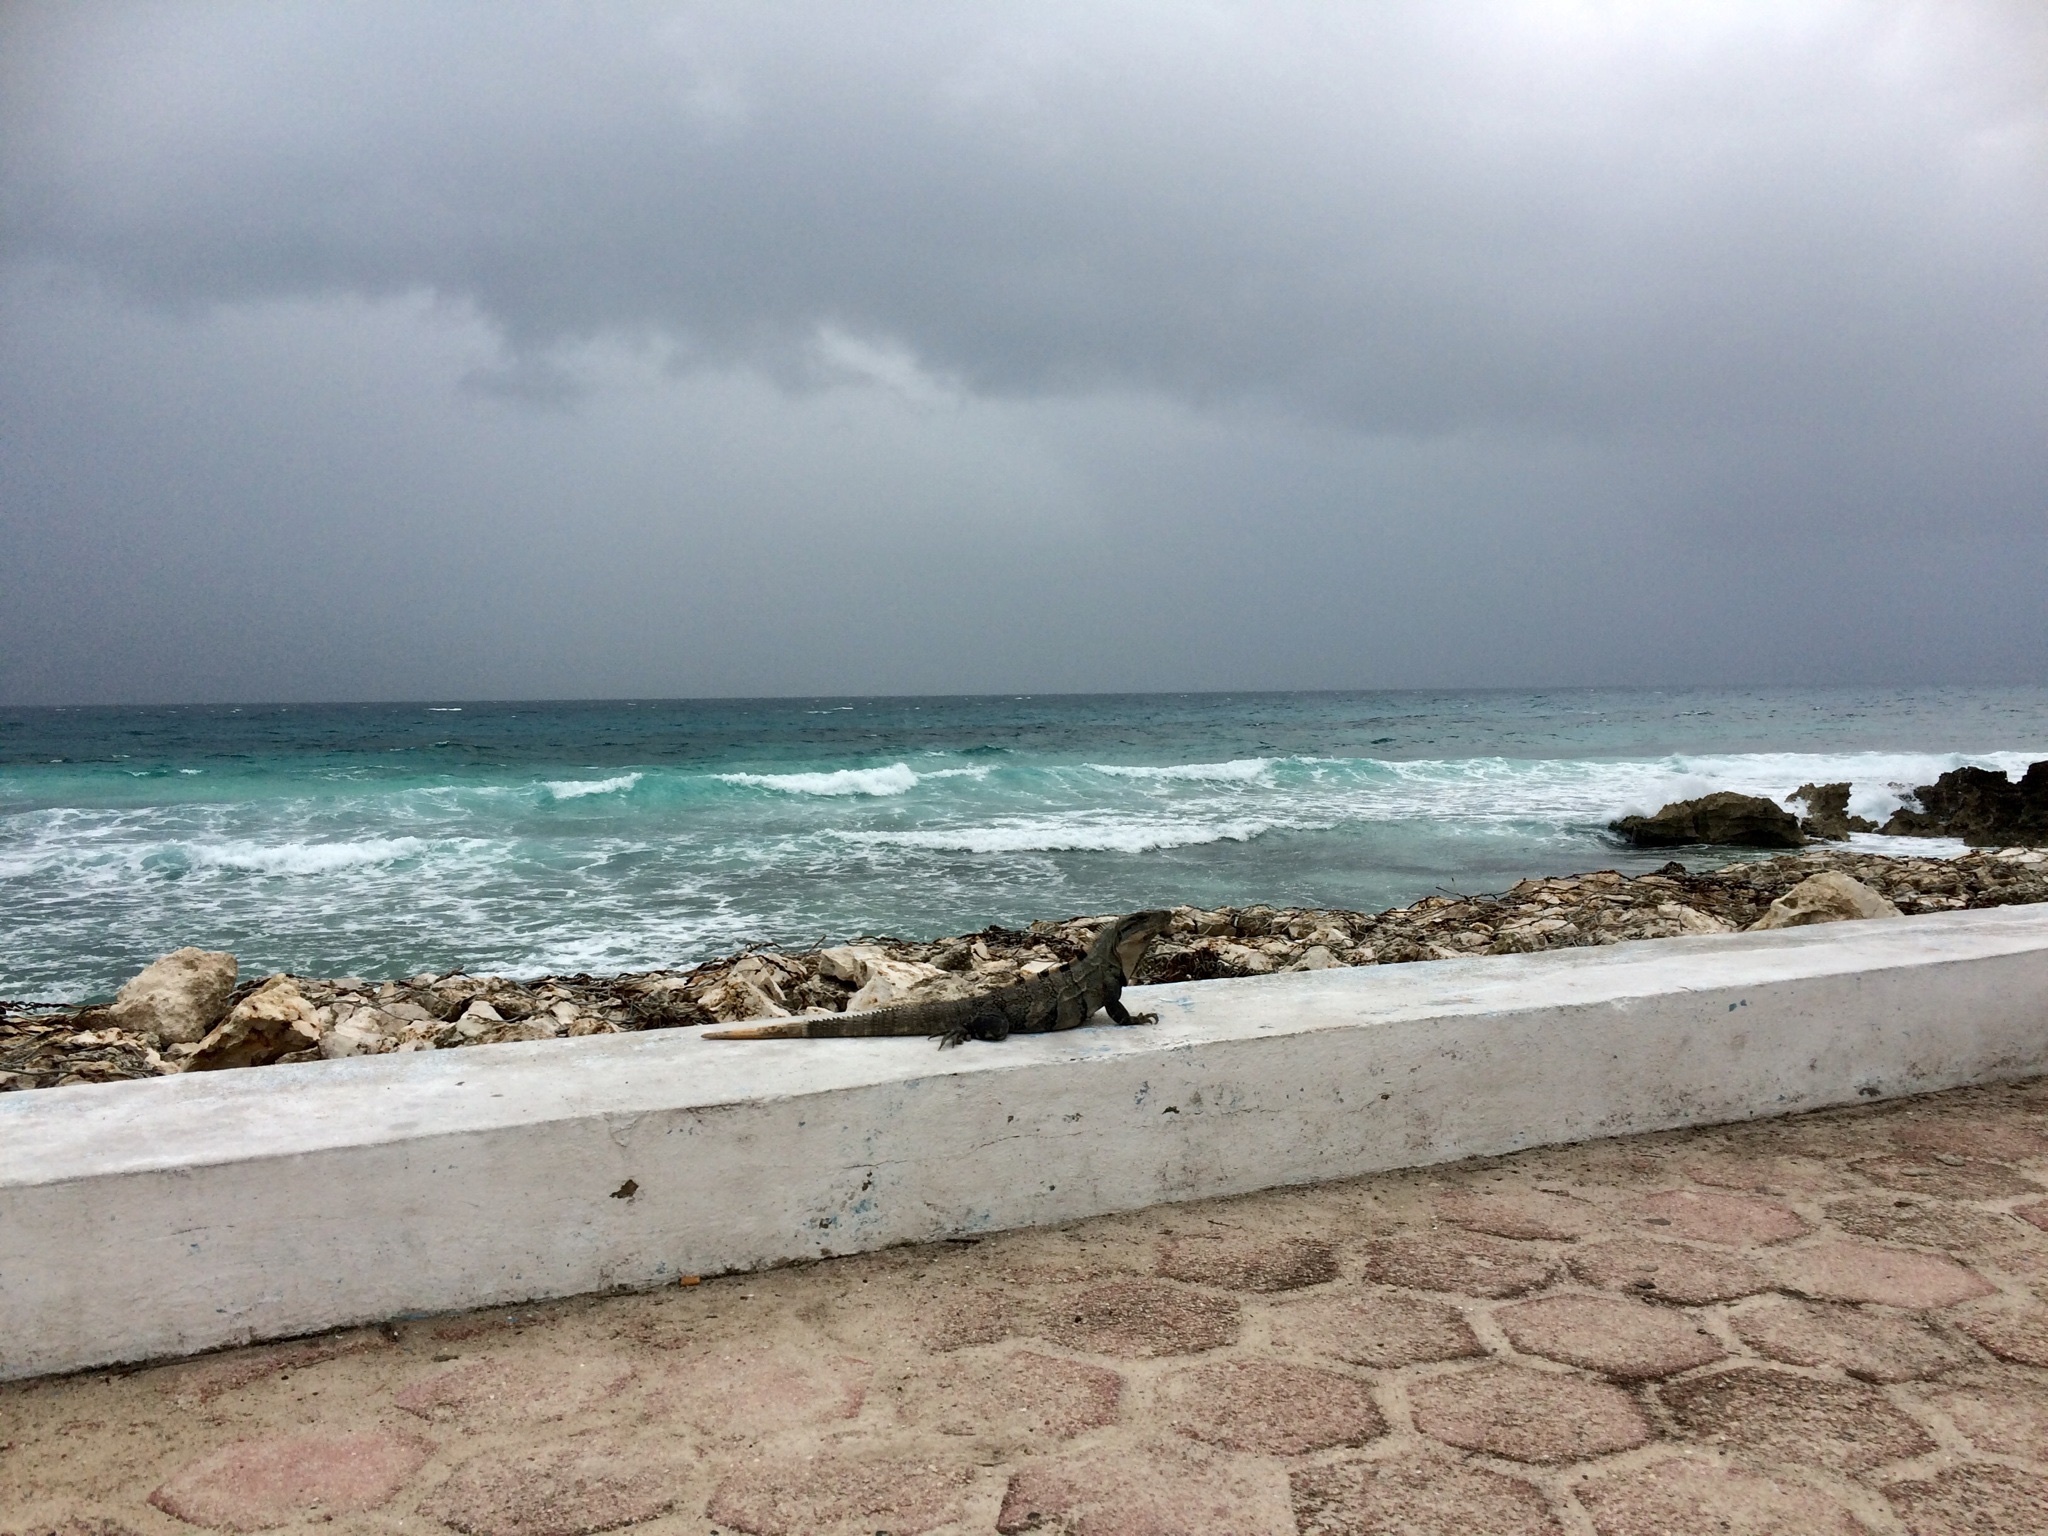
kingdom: Animalia
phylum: Chordata
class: Squamata
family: Iguanidae
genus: Ctenosaura
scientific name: Ctenosaura similis
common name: Black spiny-tailed iguana
